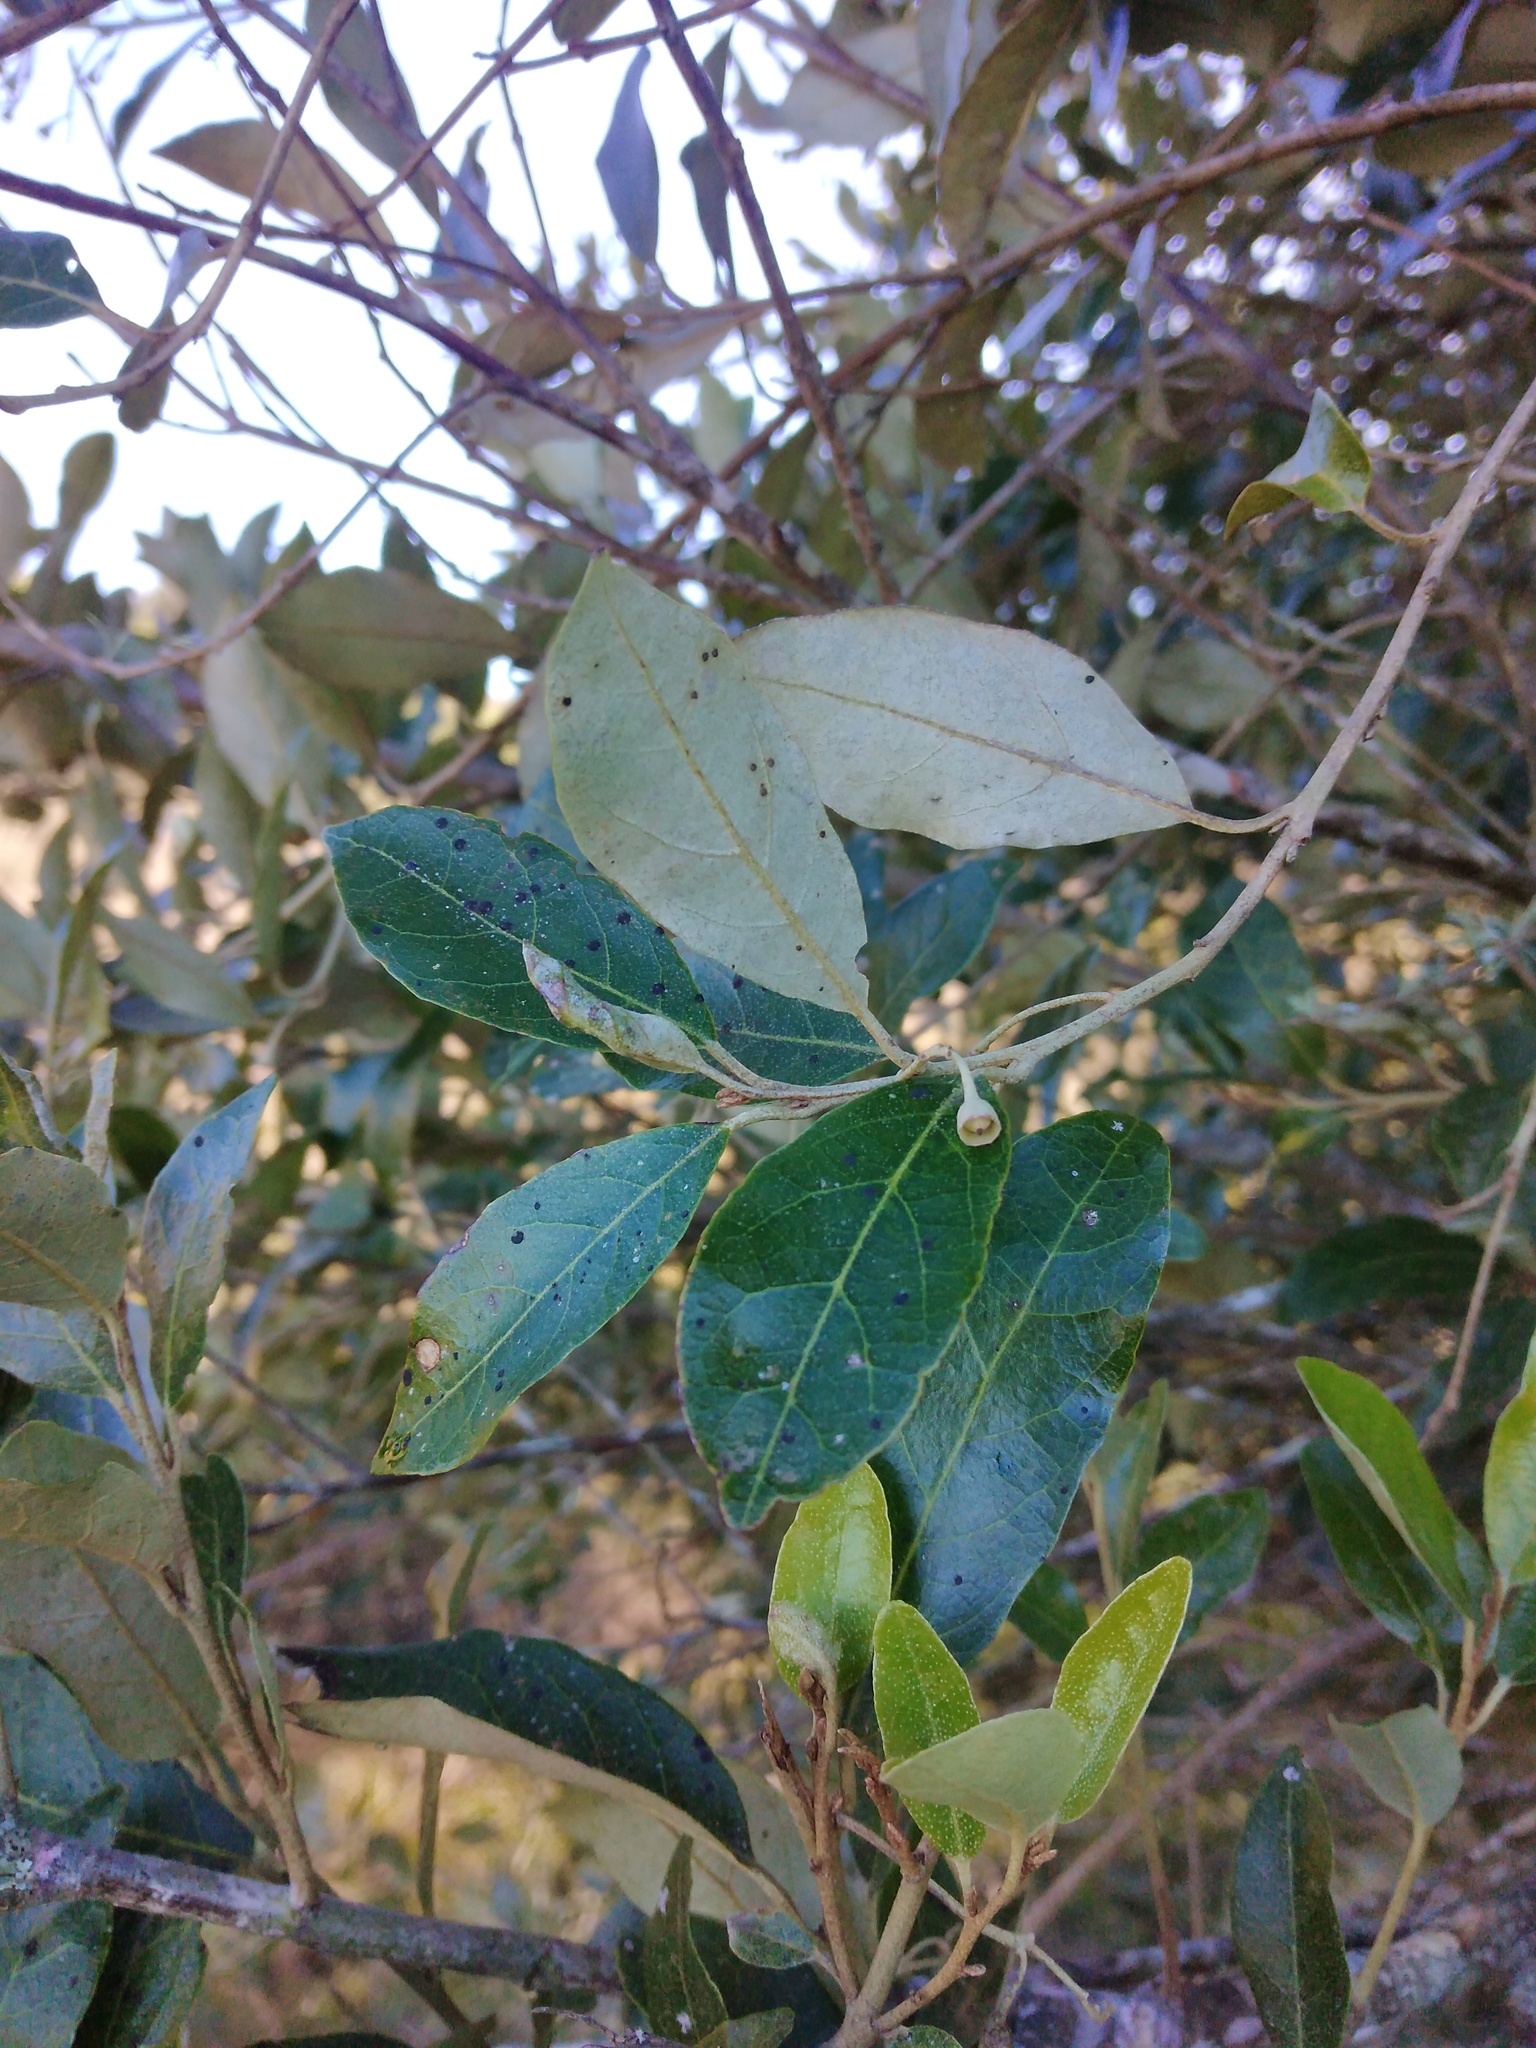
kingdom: Plantae
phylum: Tracheophyta
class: Magnoliopsida
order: Ericales
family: Styracaceae
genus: Styrax
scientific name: Styrax leprosus
